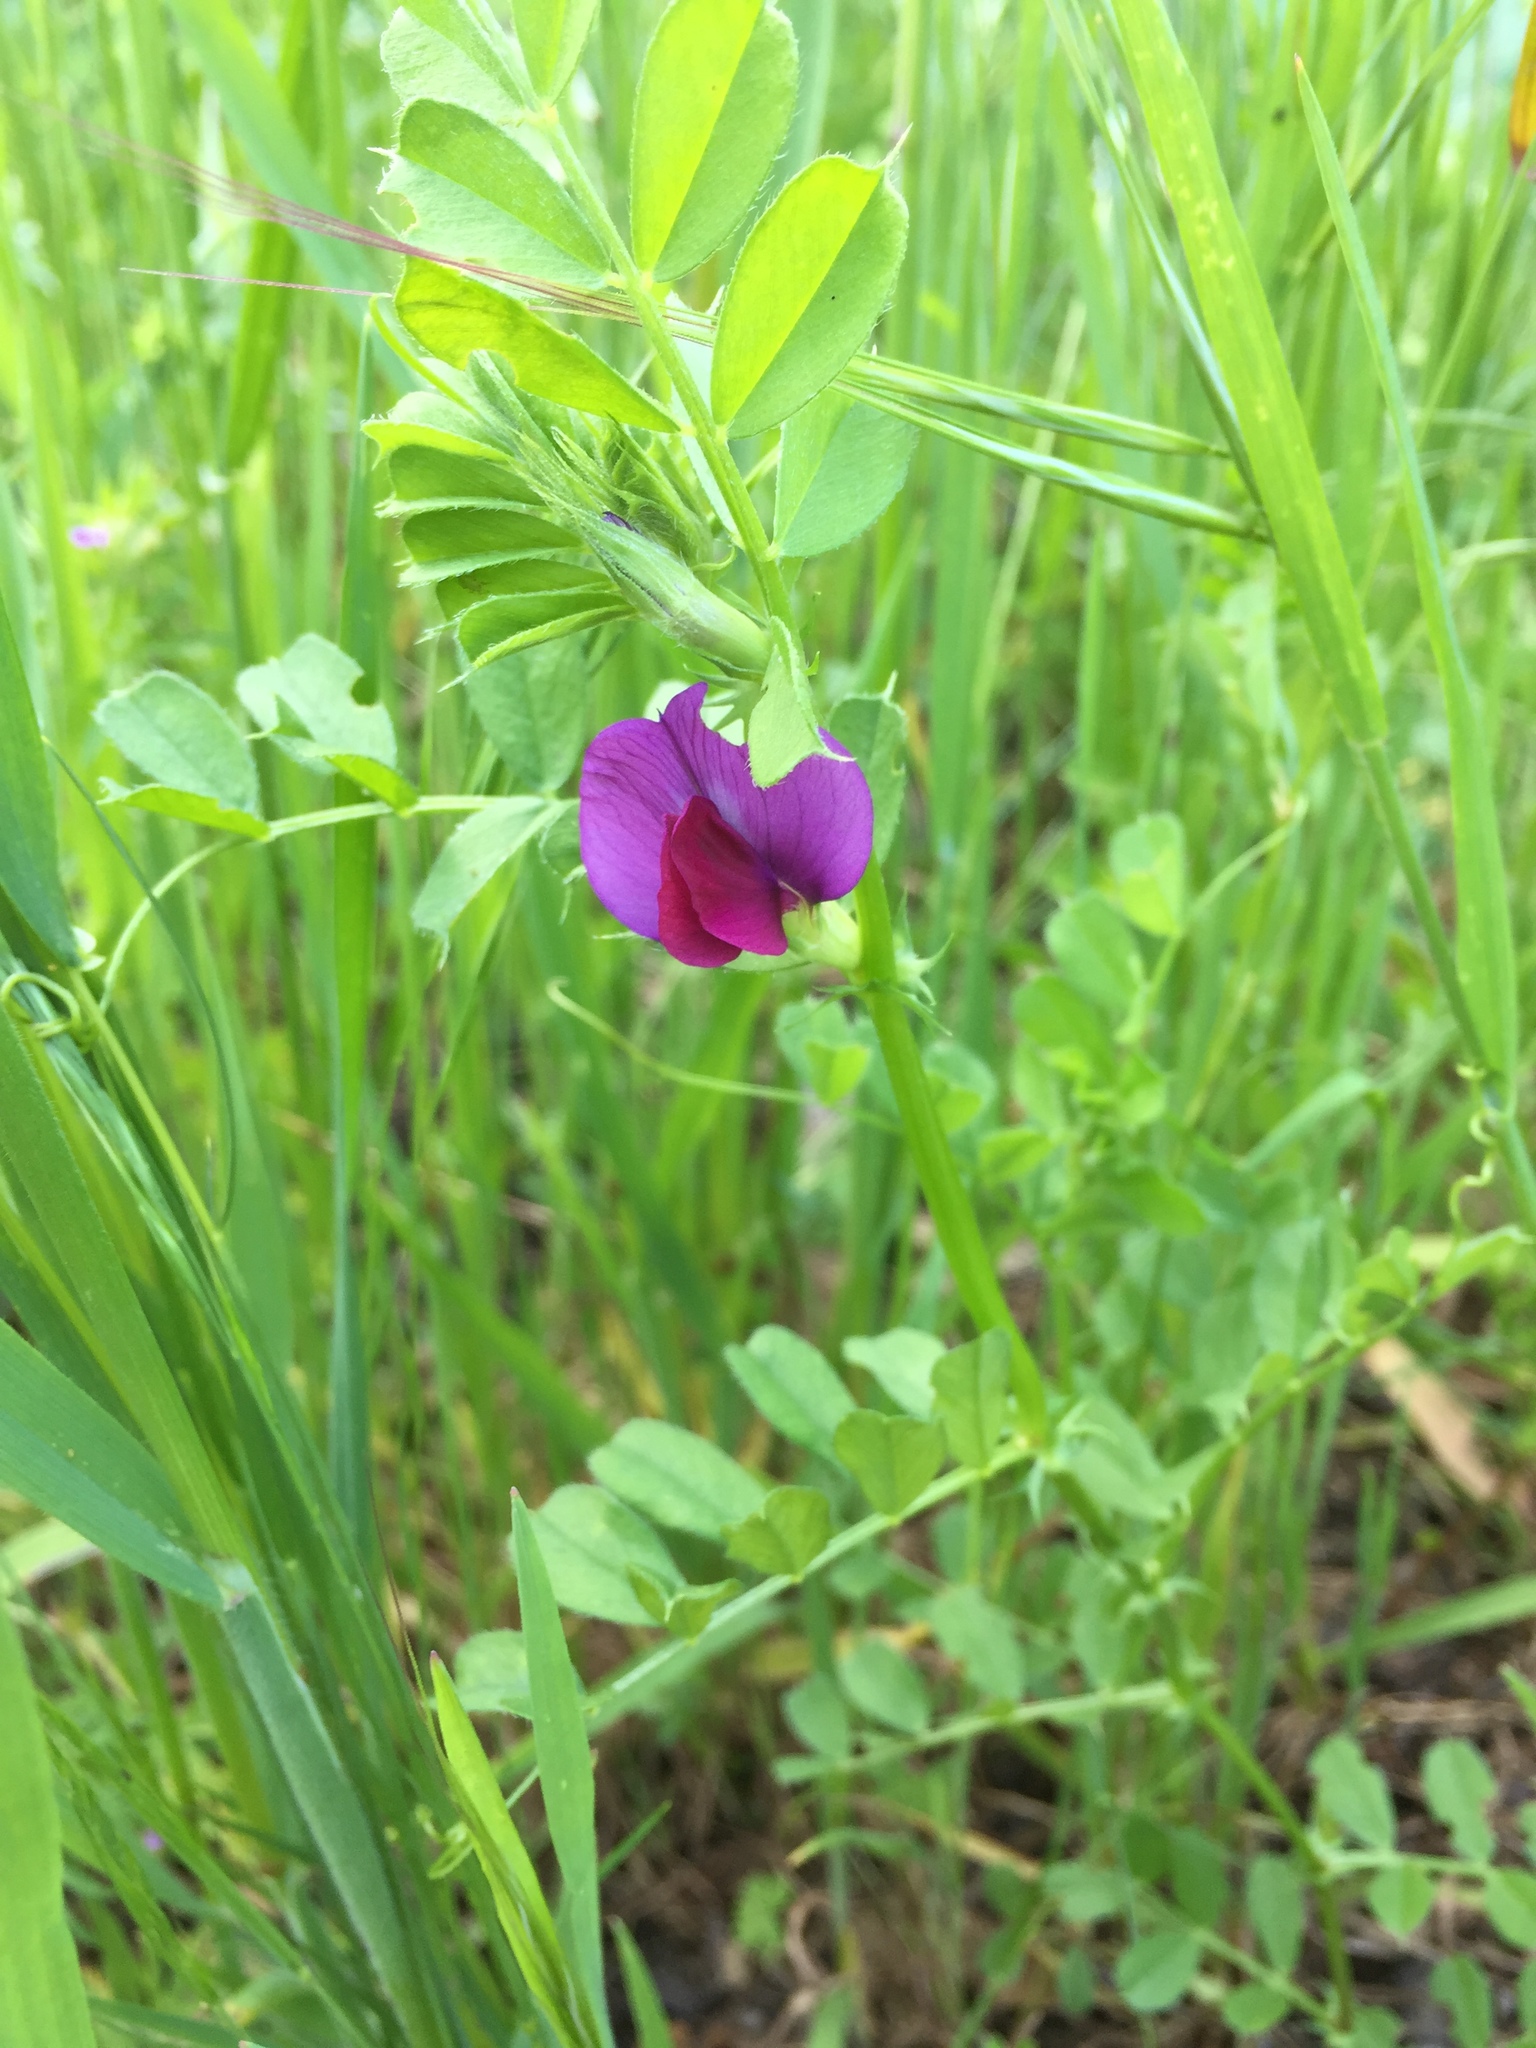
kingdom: Plantae
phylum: Tracheophyta
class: Magnoliopsida
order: Fabales
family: Fabaceae
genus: Vicia
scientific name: Vicia sativa
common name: Garden vetch
